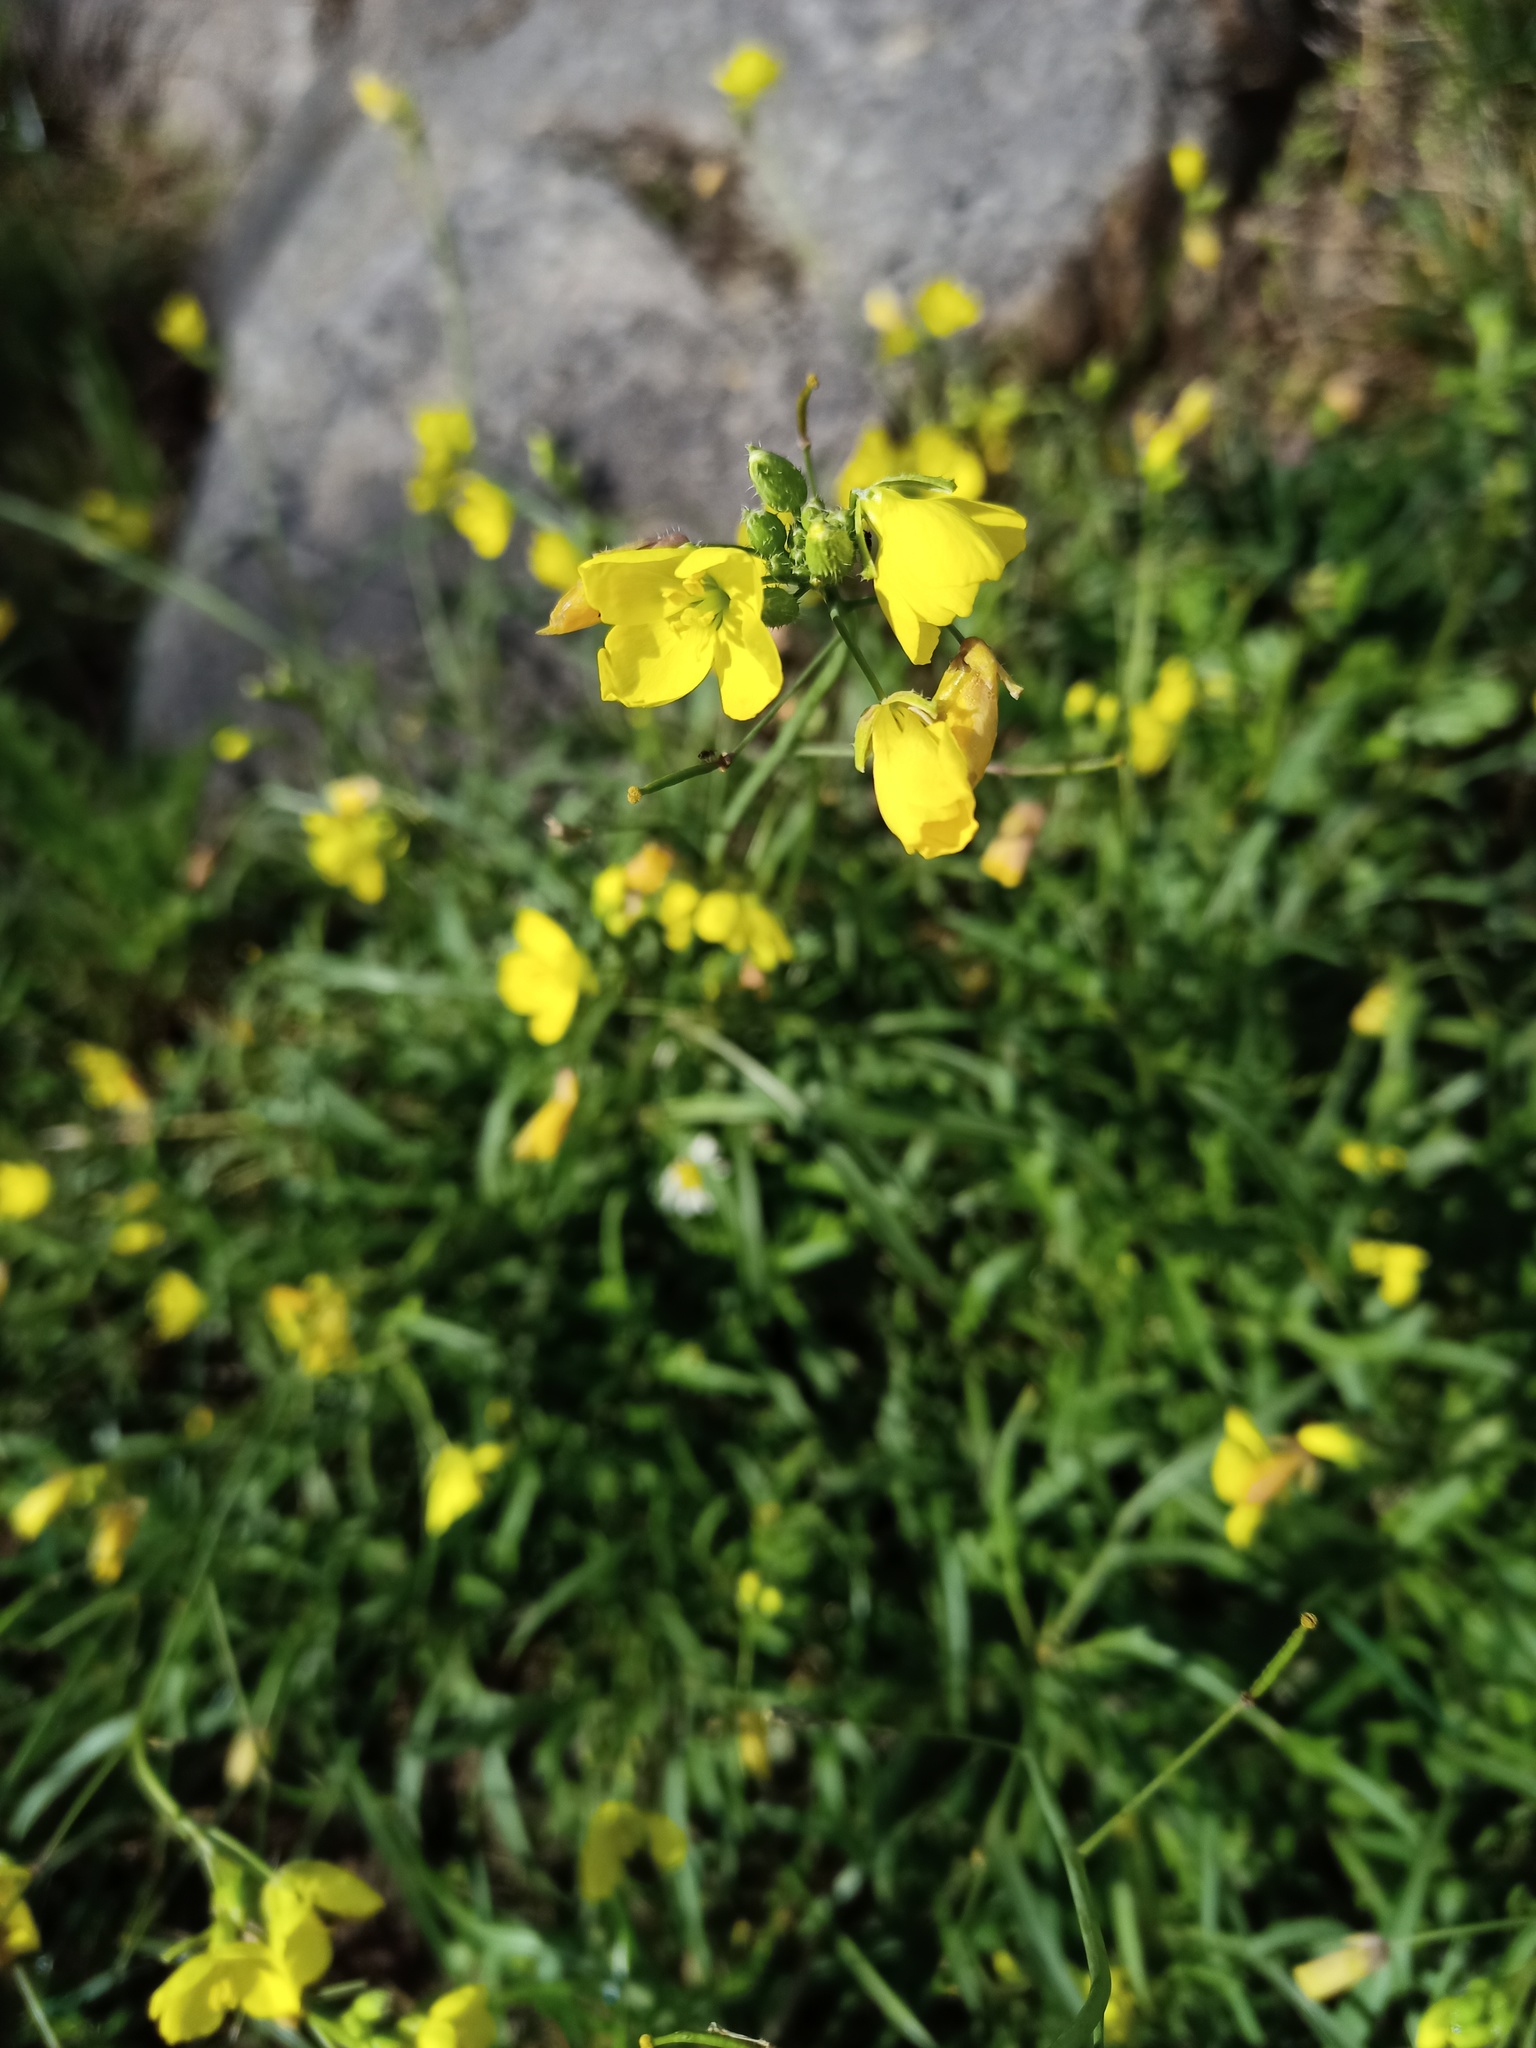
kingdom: Plantae
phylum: Tracheophyta
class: Magnoliopsida
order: Brassicales
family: Brassicaceae
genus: Diplotaxis
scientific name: Diplotaxis tenuifolia
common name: Perennial wall-rocket
